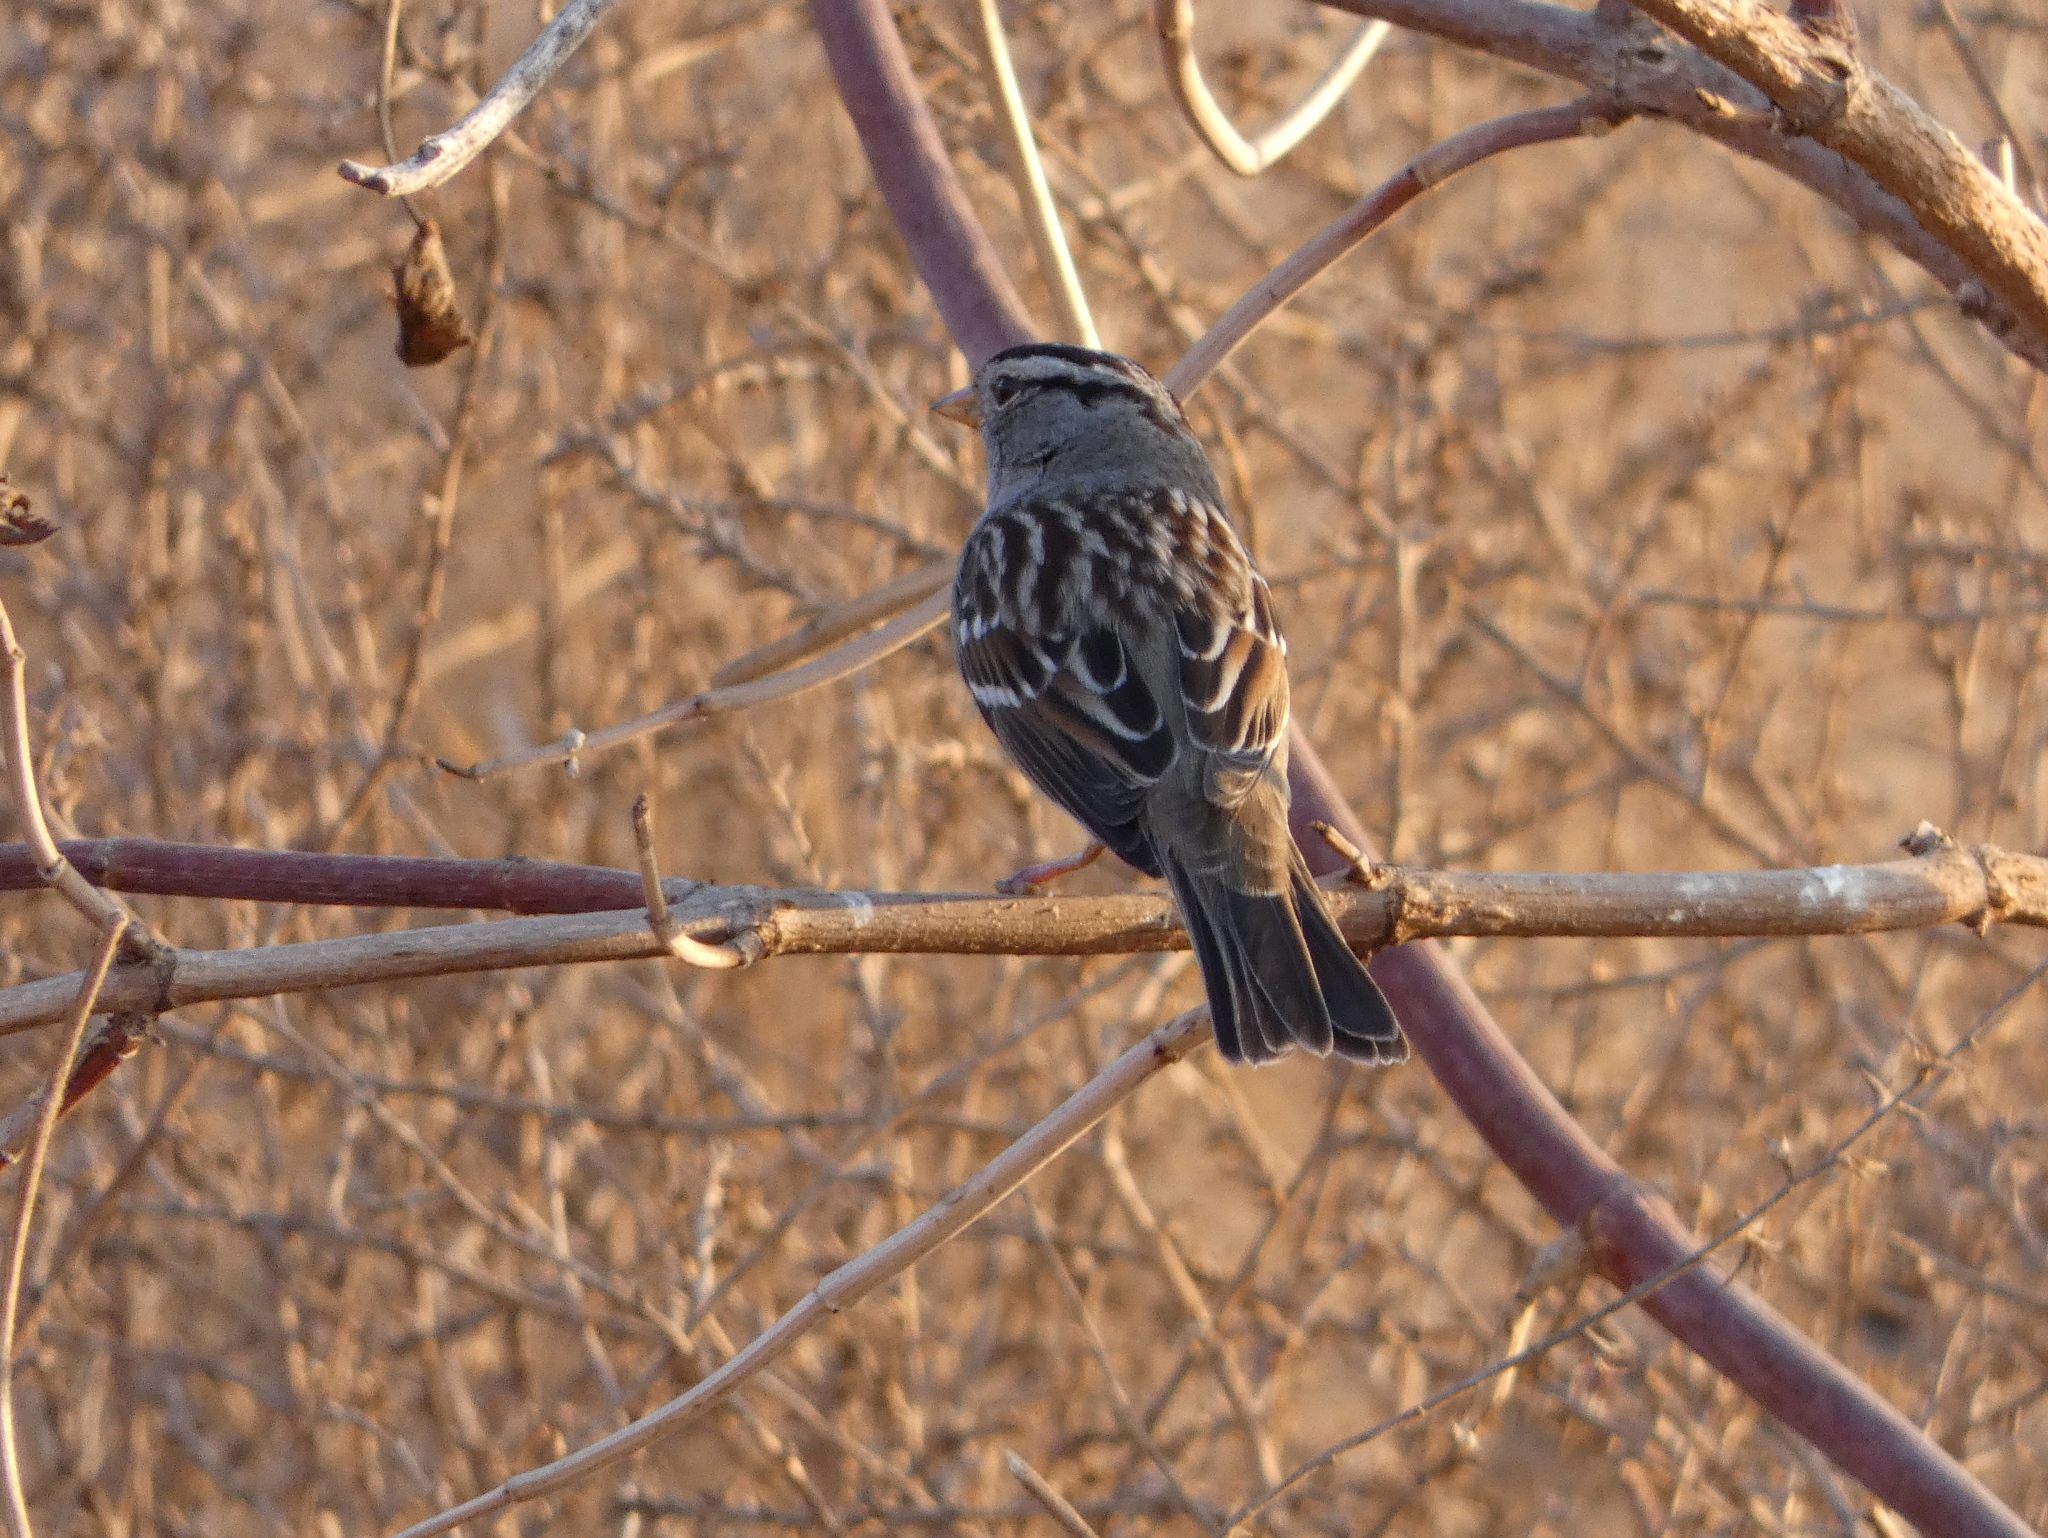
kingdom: Animalia
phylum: Chordata
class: Aves
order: Passeriformes
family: Passerellidae
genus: Zonotrichia
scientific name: Zonotrichia leucophrys
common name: White-crowned sparrow
